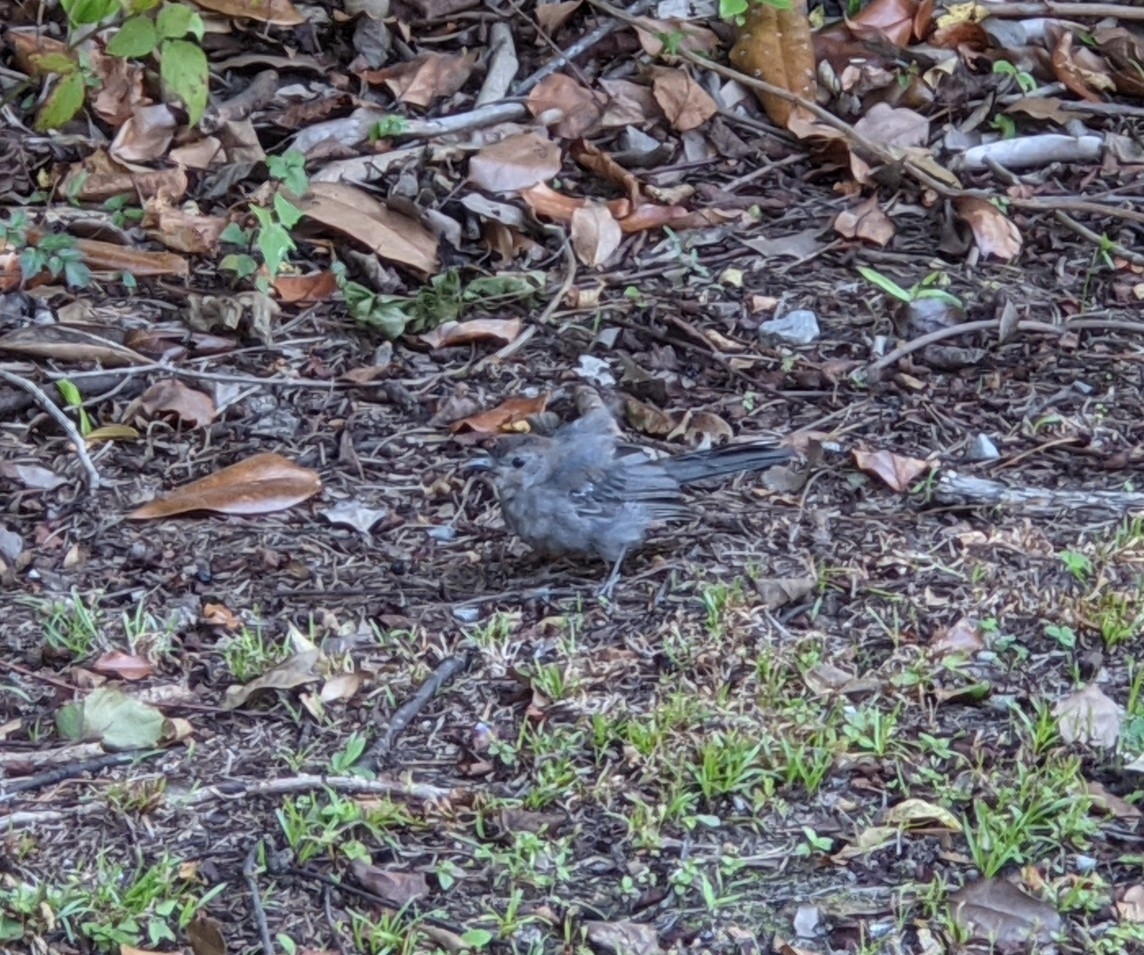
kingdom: Animalia
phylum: Chordata
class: Aves
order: Passeriformes
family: Mimidae
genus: Dumetella
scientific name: Dumetella carolinensis
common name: Gray catbird
